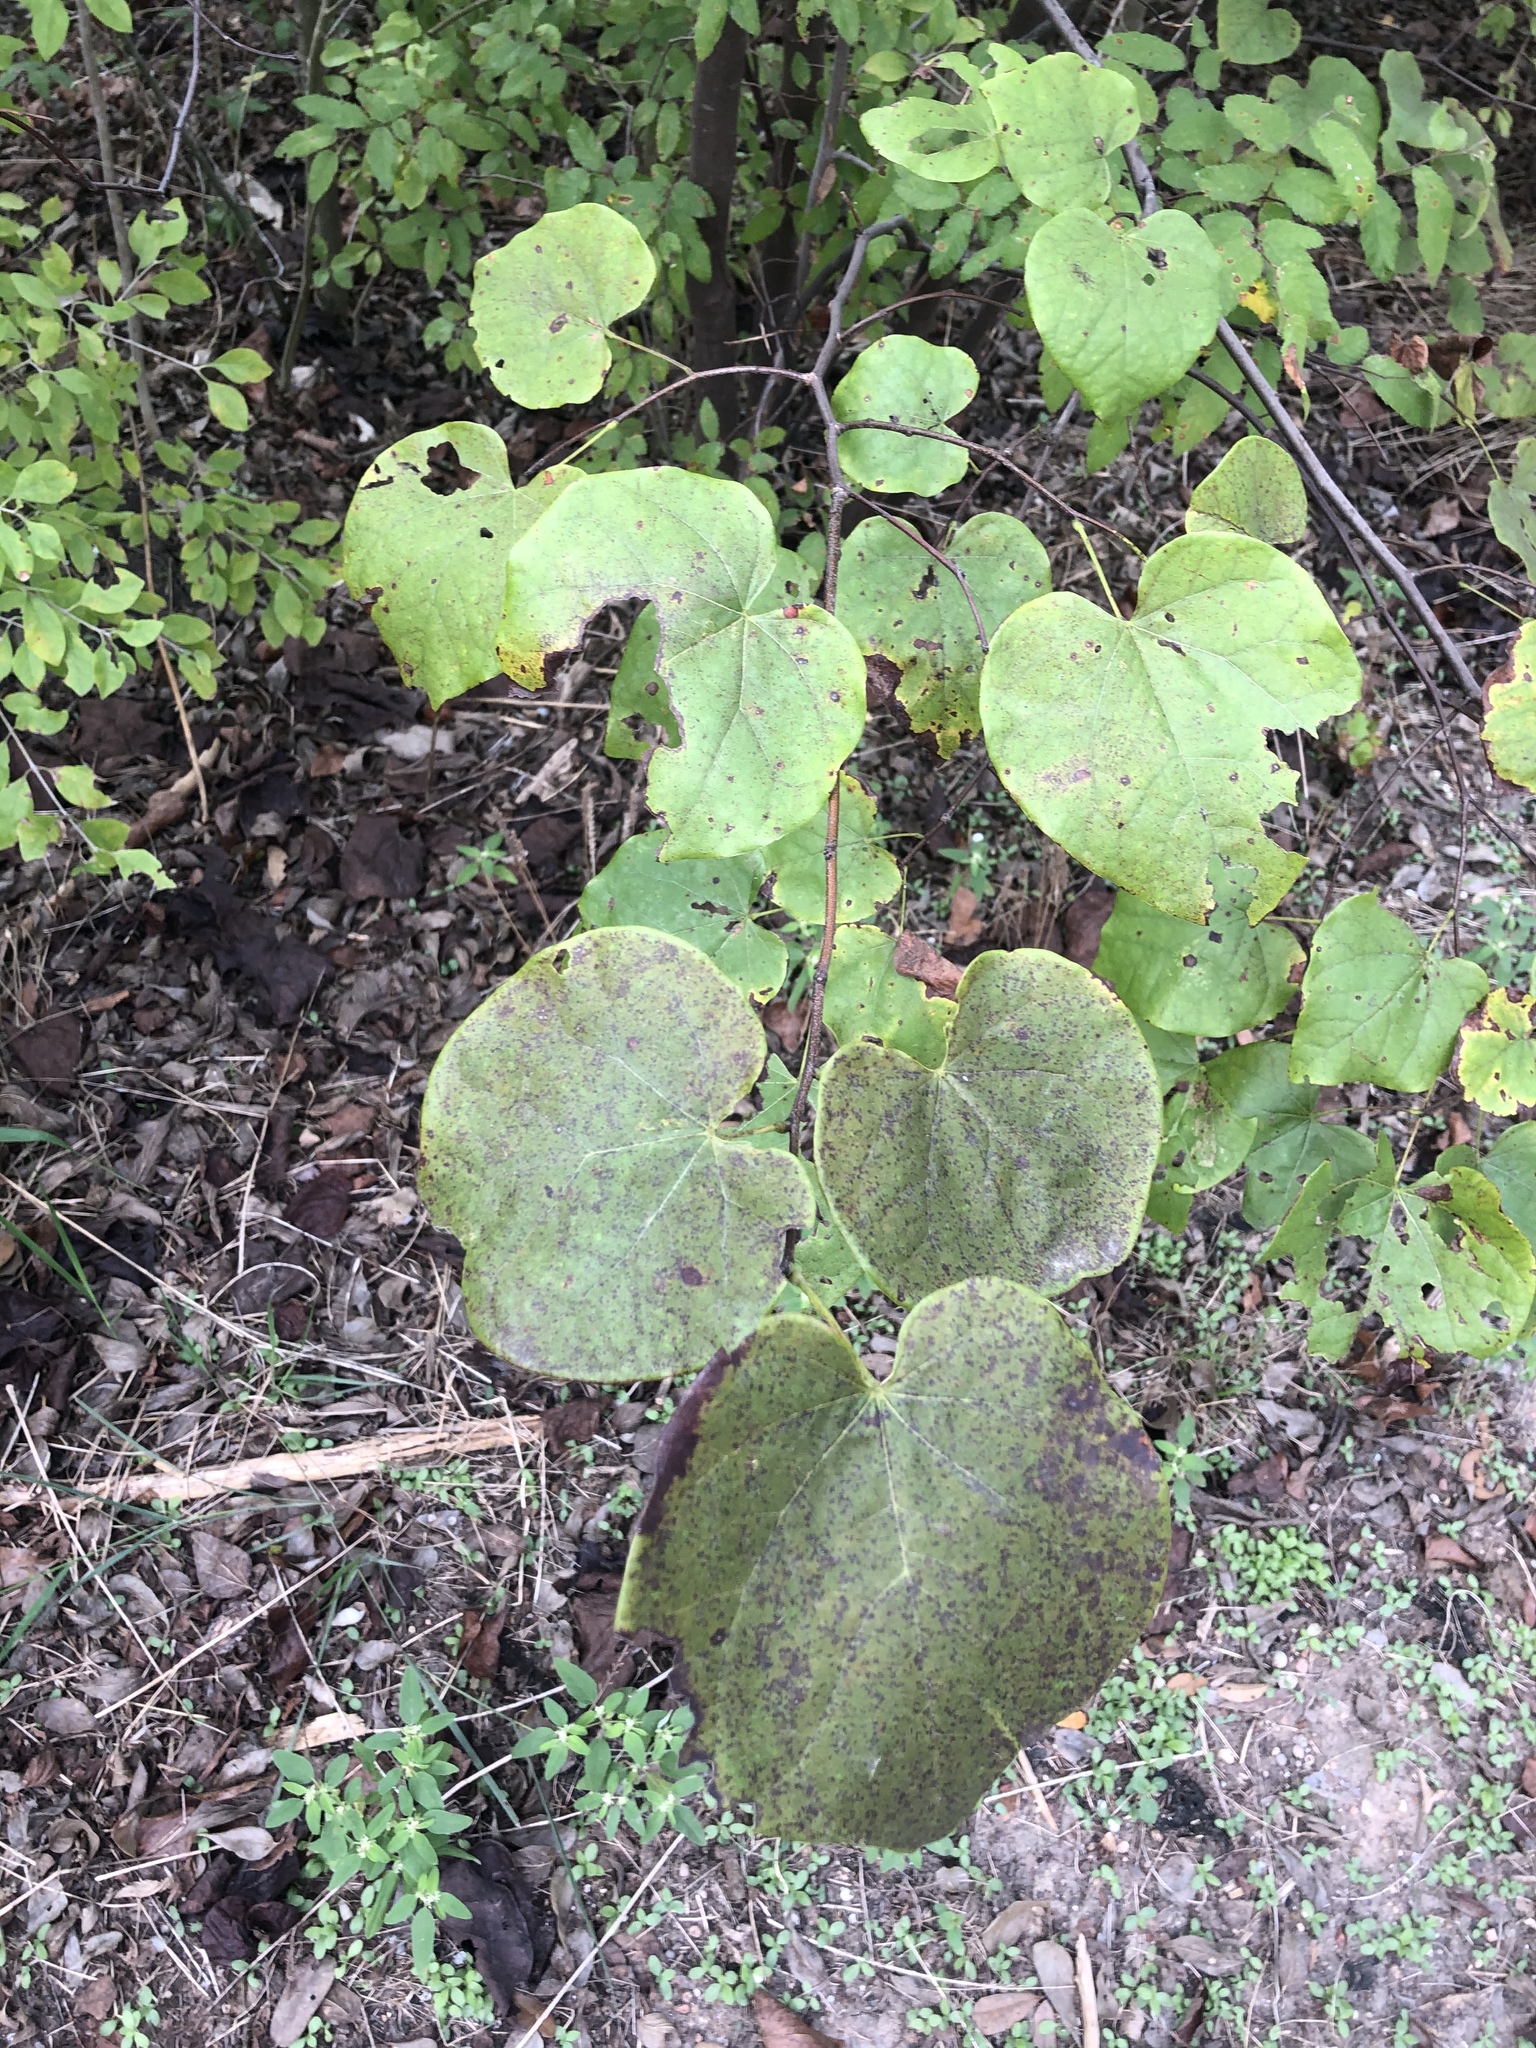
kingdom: Plantae
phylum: Tracheophyta
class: Magnoliopsida
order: Fabales
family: Fabaceae
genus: Cercis
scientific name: Cercis canadensis
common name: Eastern redbud
